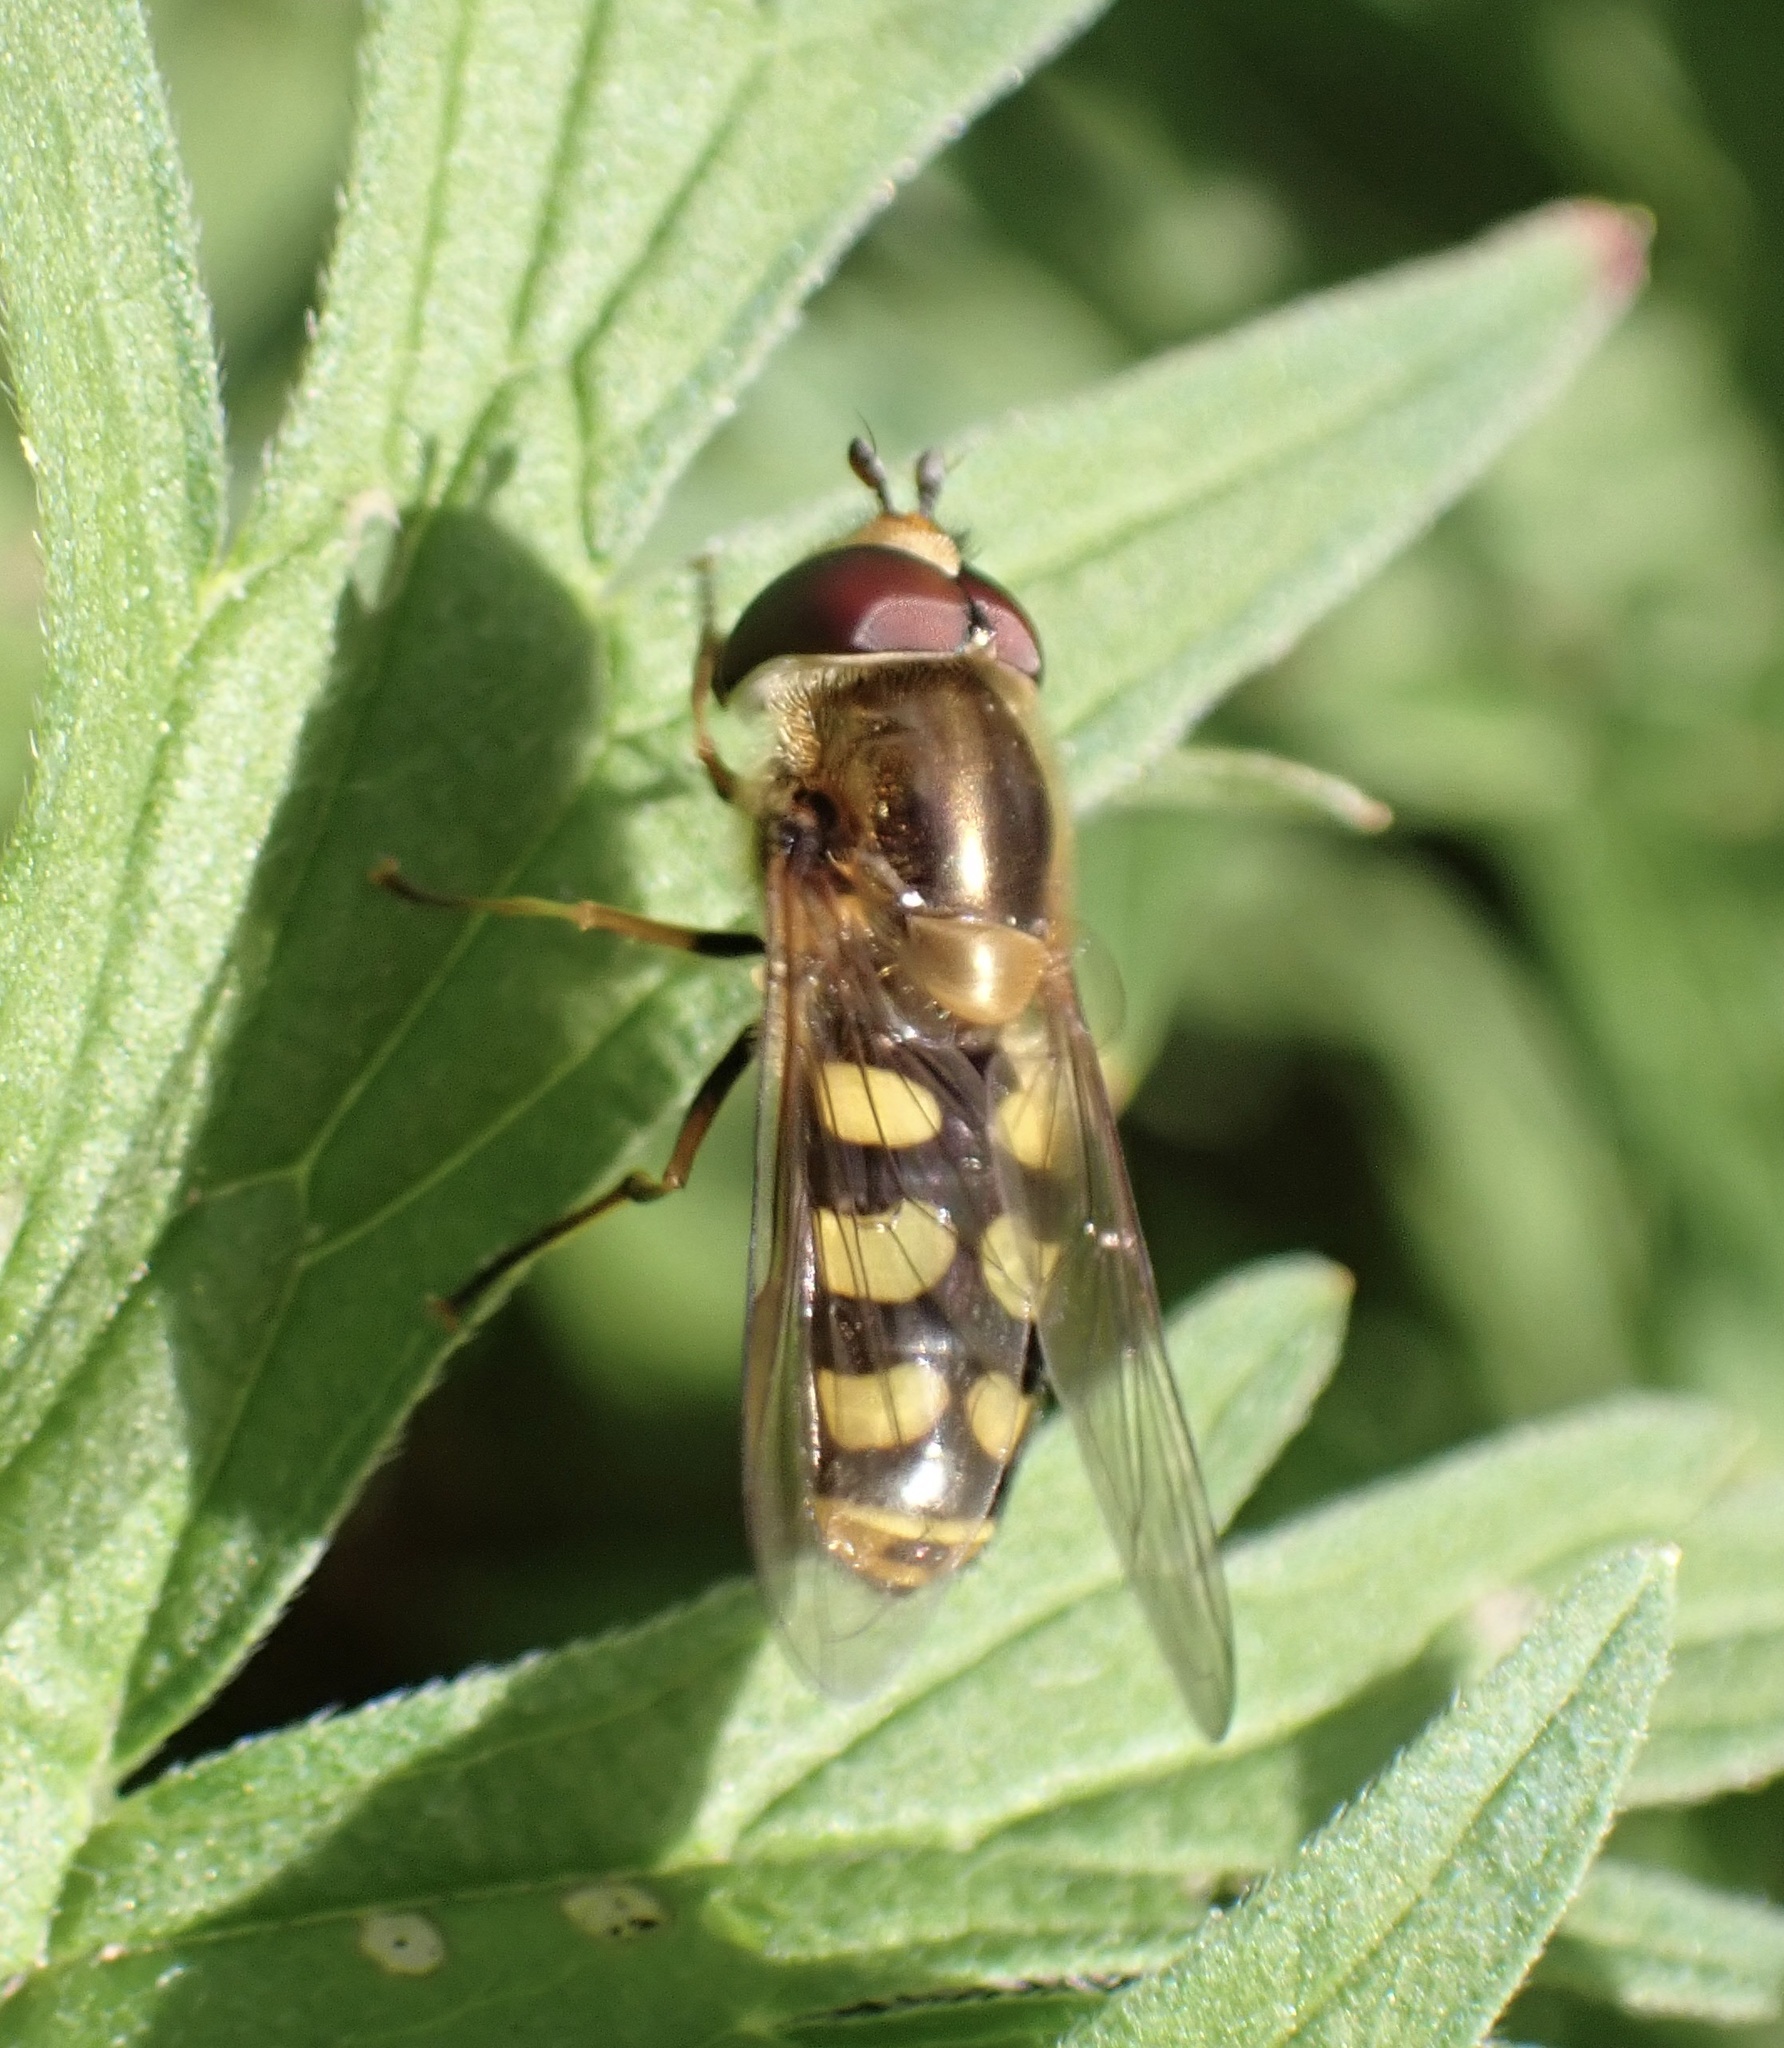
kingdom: Animalia
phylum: Arthropoda
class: Insecta
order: Diptera
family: Syrphidae
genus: Eupeodes
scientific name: Eupeodes
